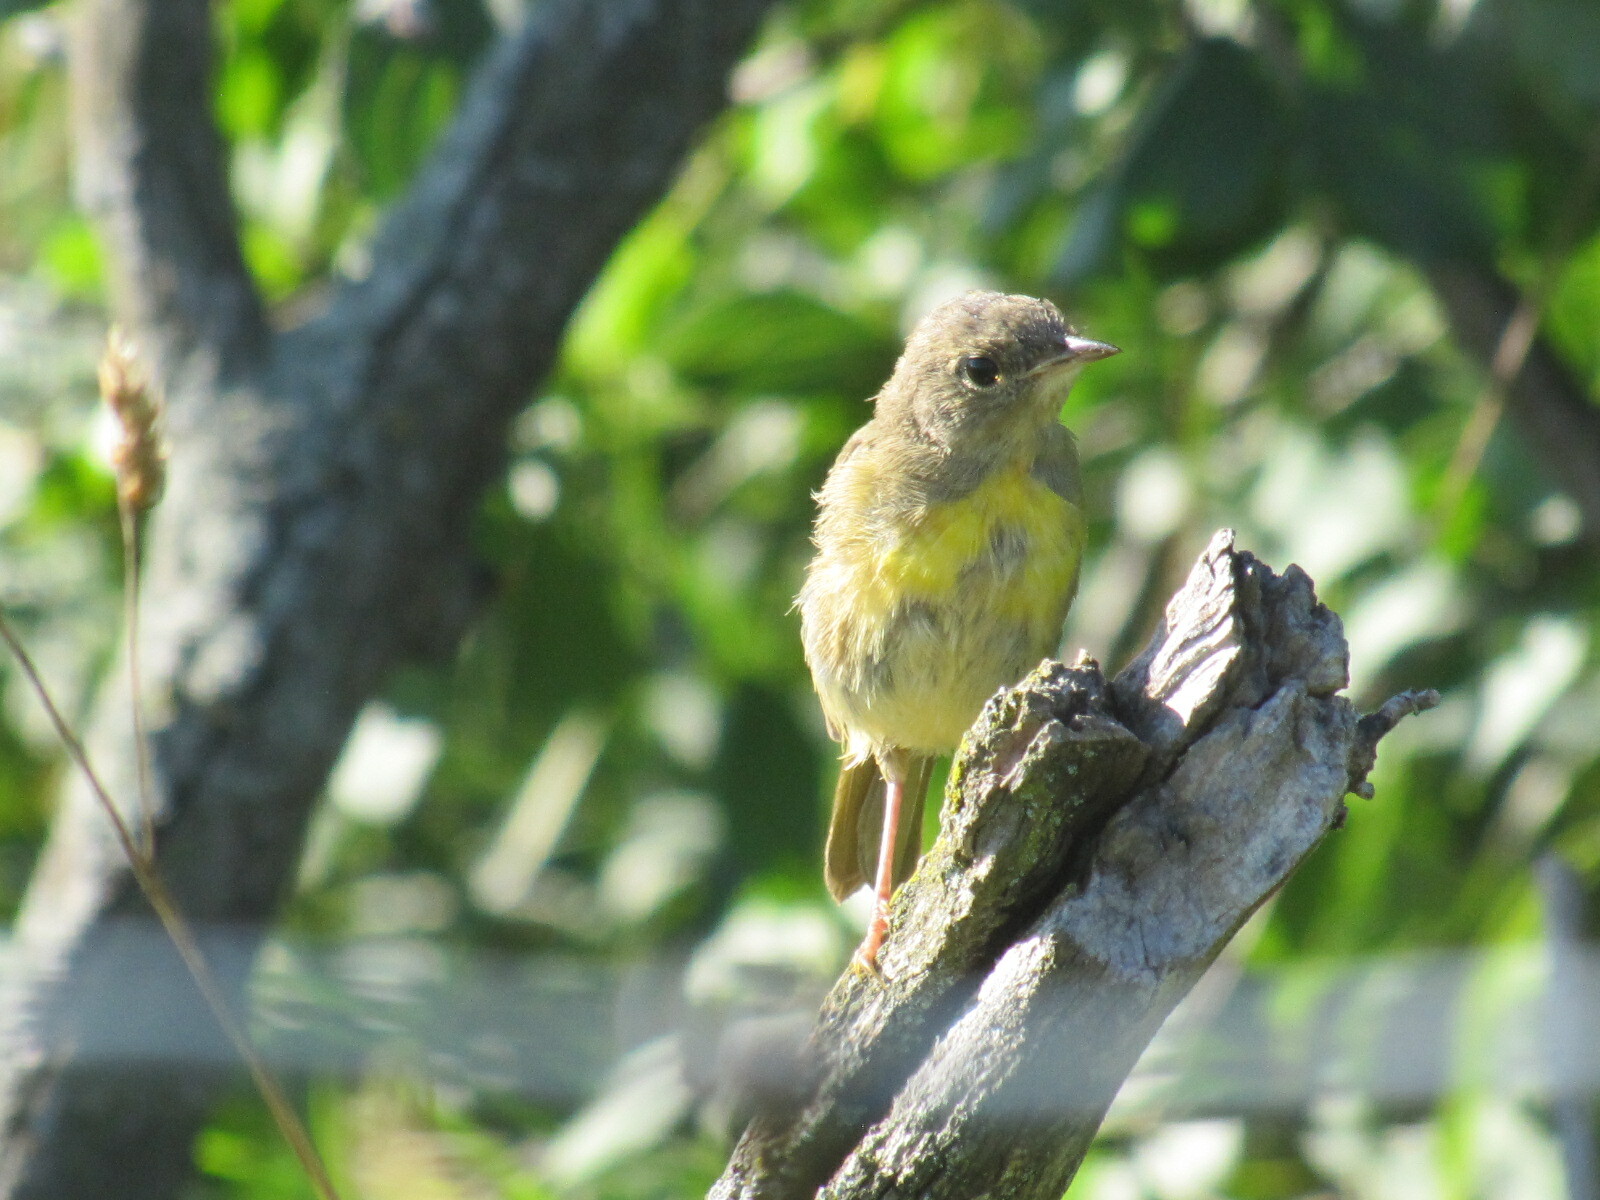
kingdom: Animalia
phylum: Chordata
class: Aves
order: Passeriformes
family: Parulidae
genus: Geothlypis
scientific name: Geothlypis trichas
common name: Common yellowthroat
